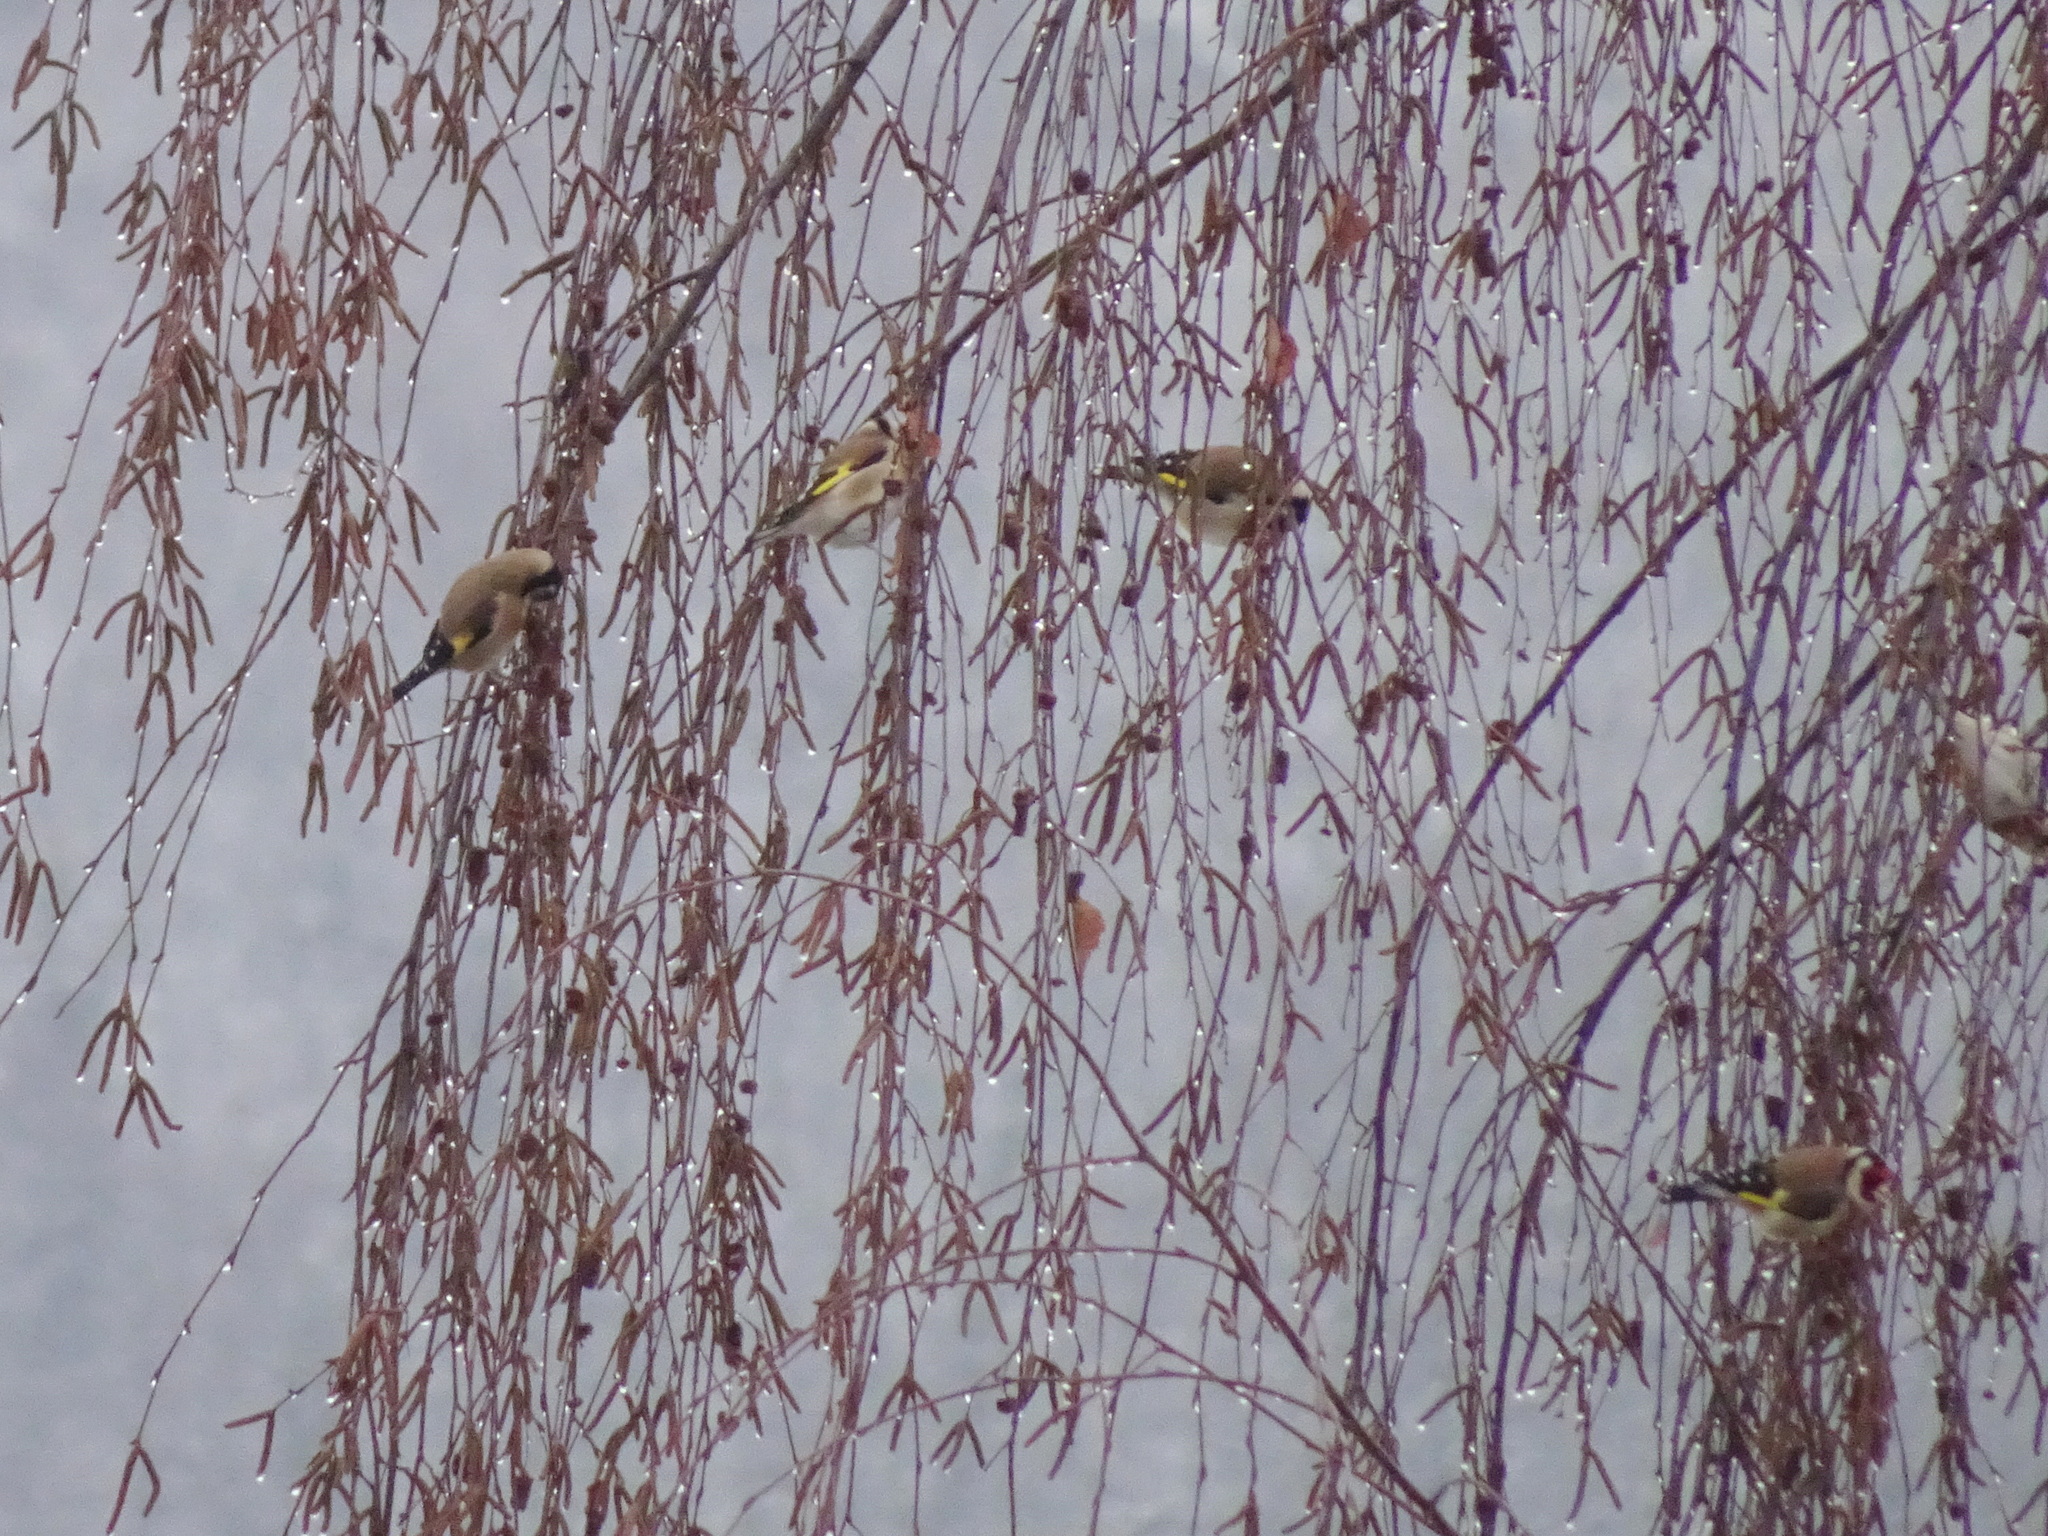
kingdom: Animalia
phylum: Chordata
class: Aves
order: Passeriformes
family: Fringillidae
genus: Carduelis
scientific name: Carduelis carduelis
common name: European goldfinch
